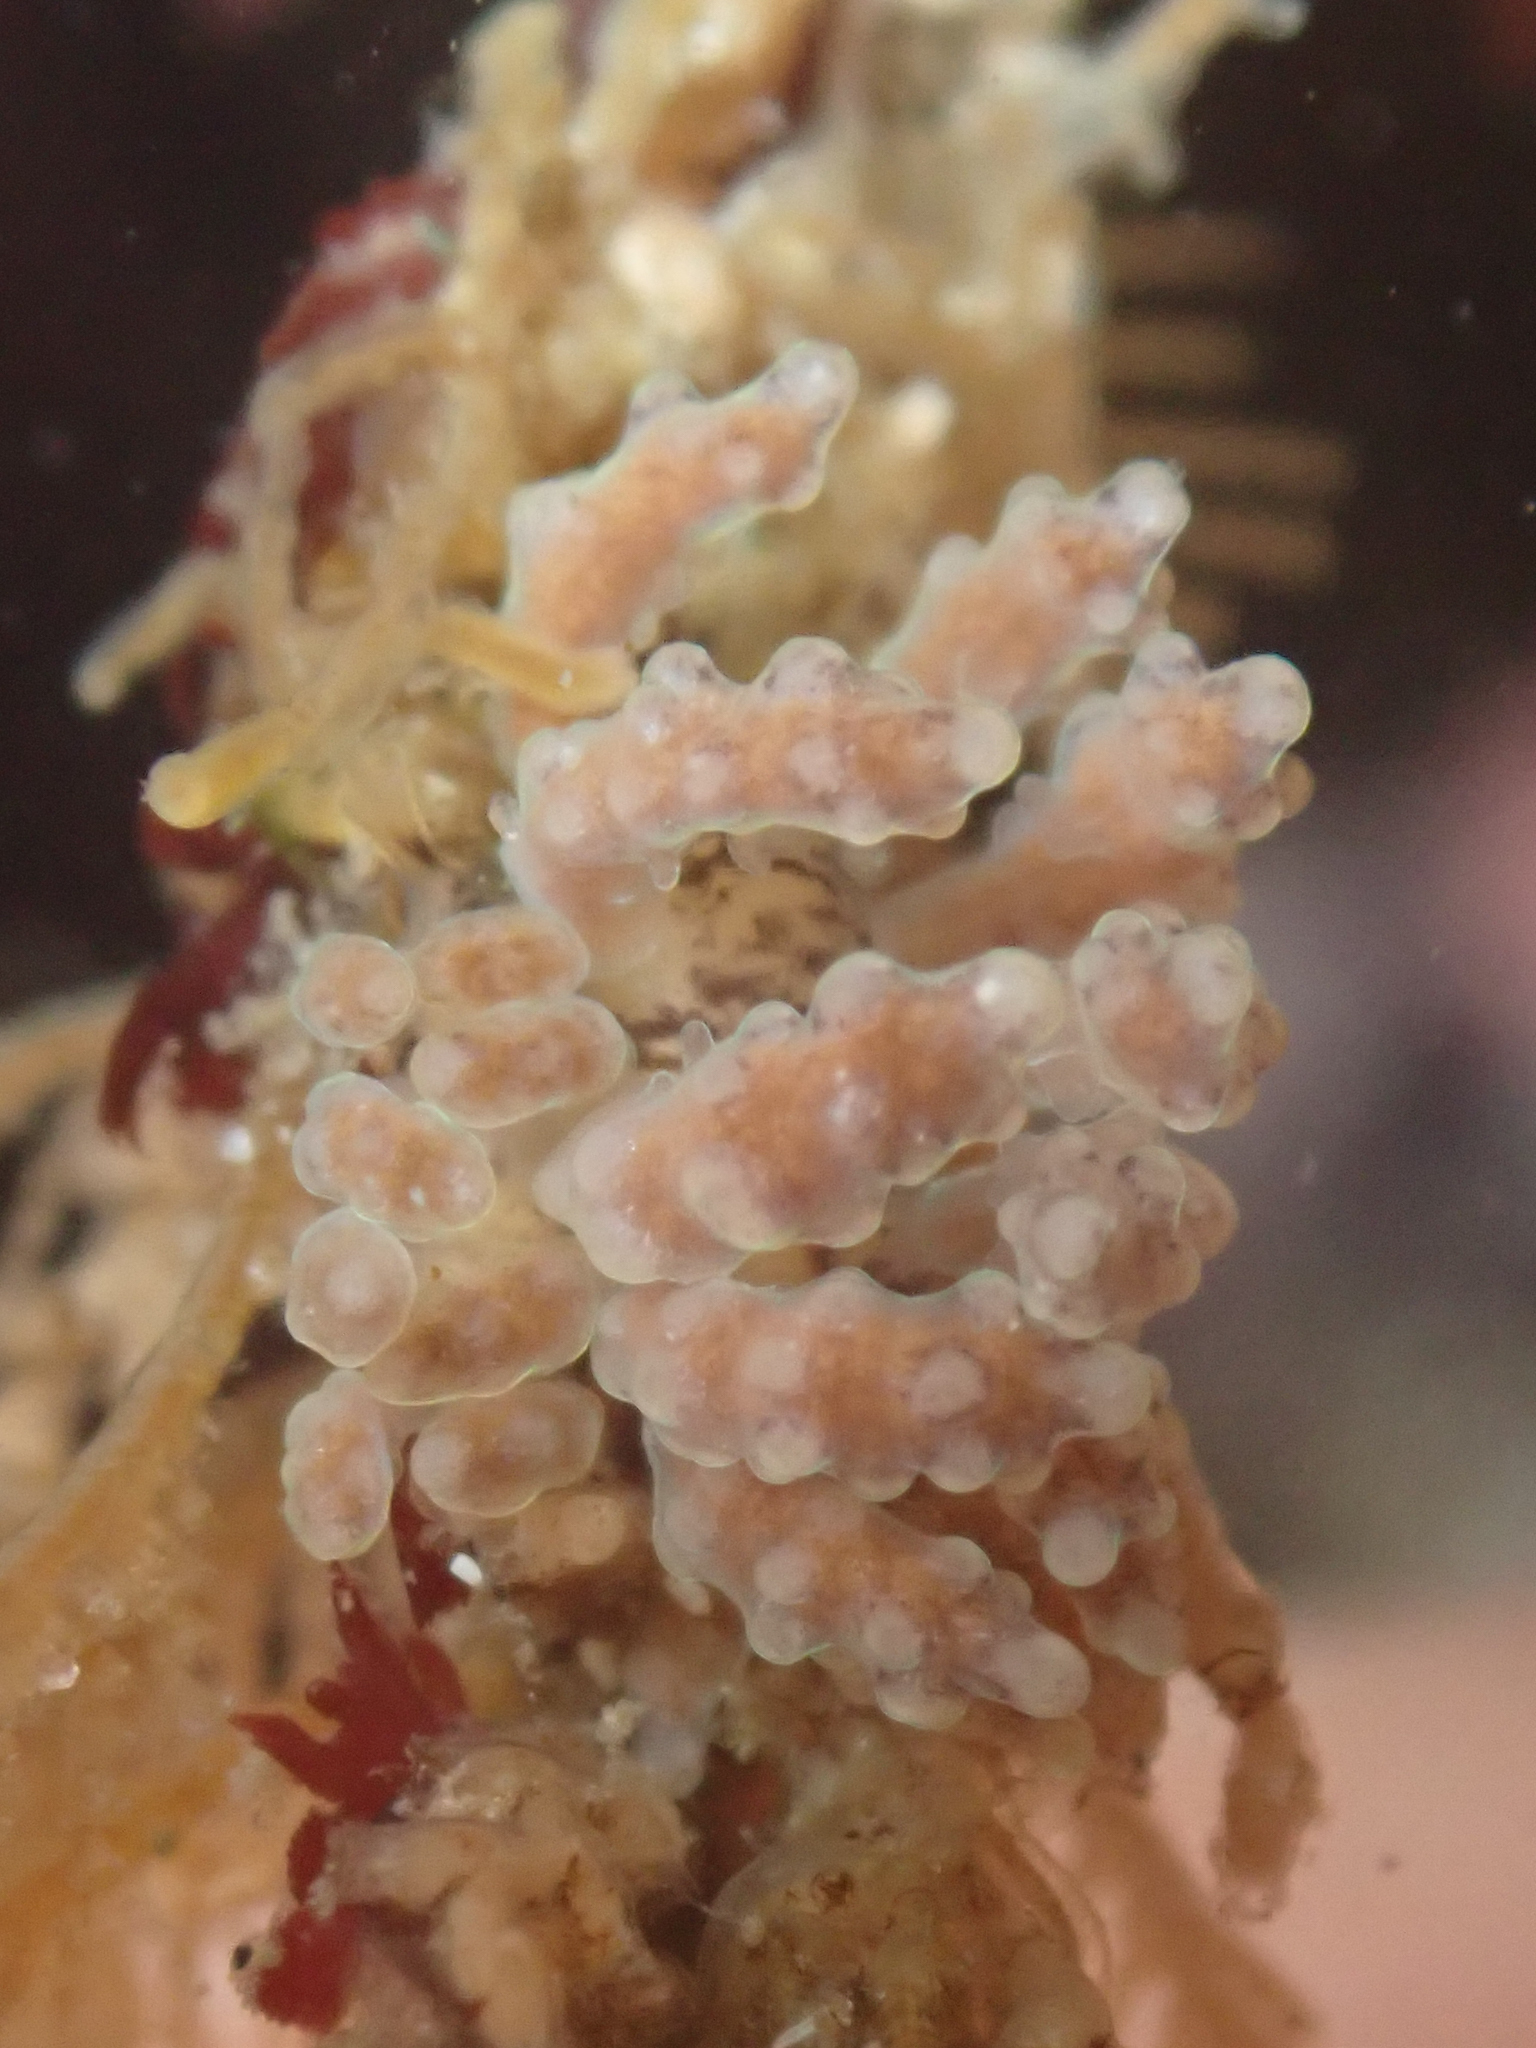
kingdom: Animalia
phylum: Mollusca
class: Gastropoda
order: Nudibranchia
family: Dotidae
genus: Doto
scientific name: Doto columbiana
